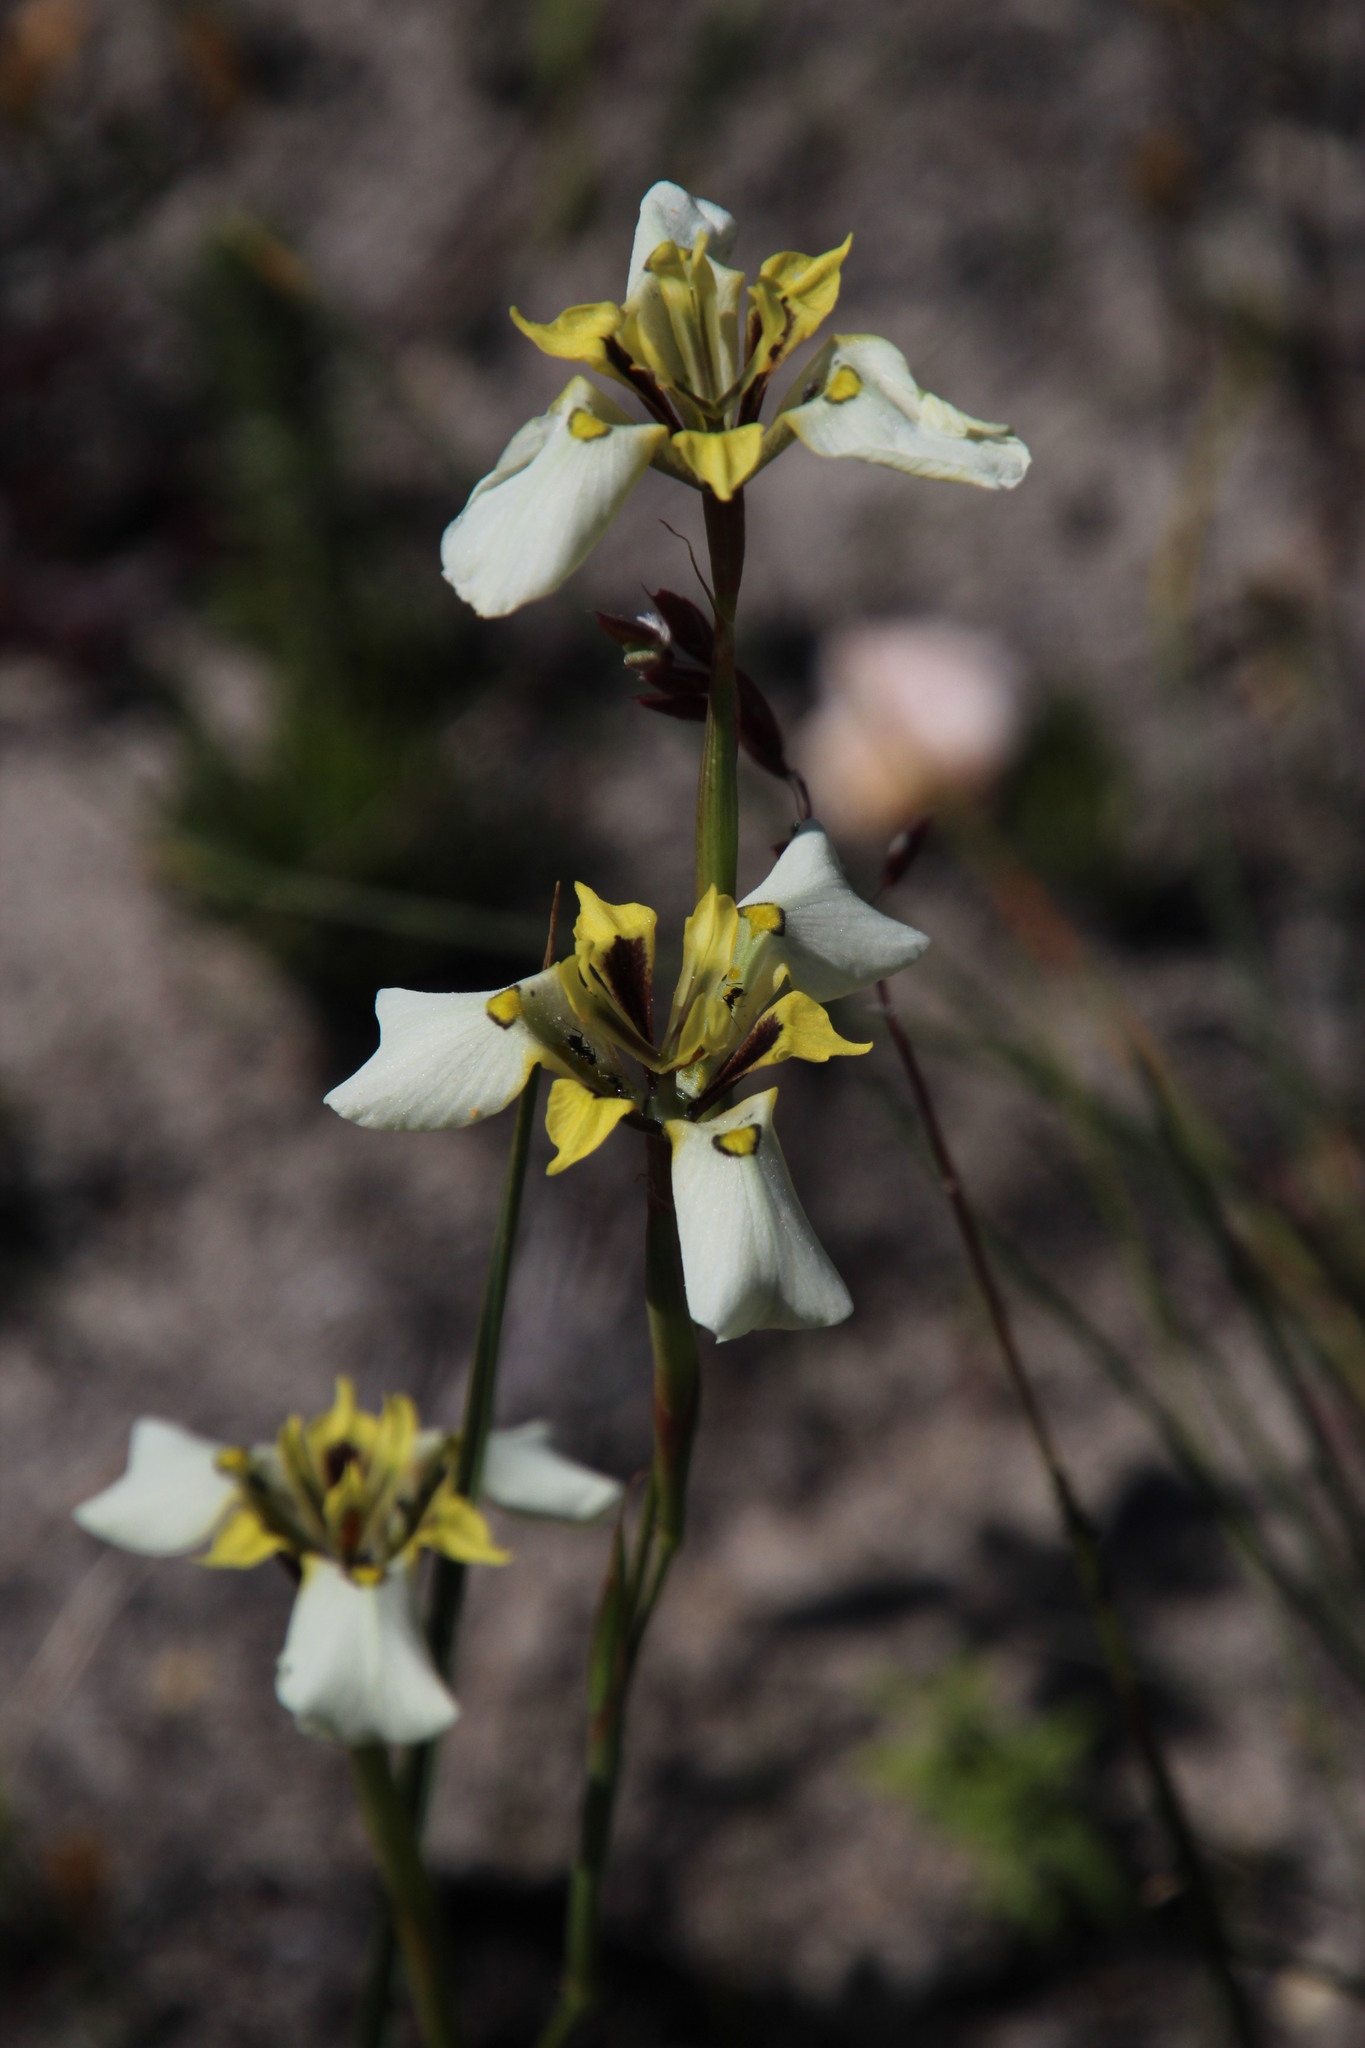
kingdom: Plantae
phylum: Tracheophyta
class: Liliopsida
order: Asparagales
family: Iridaceae
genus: Moraea
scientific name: Moraea lurida
